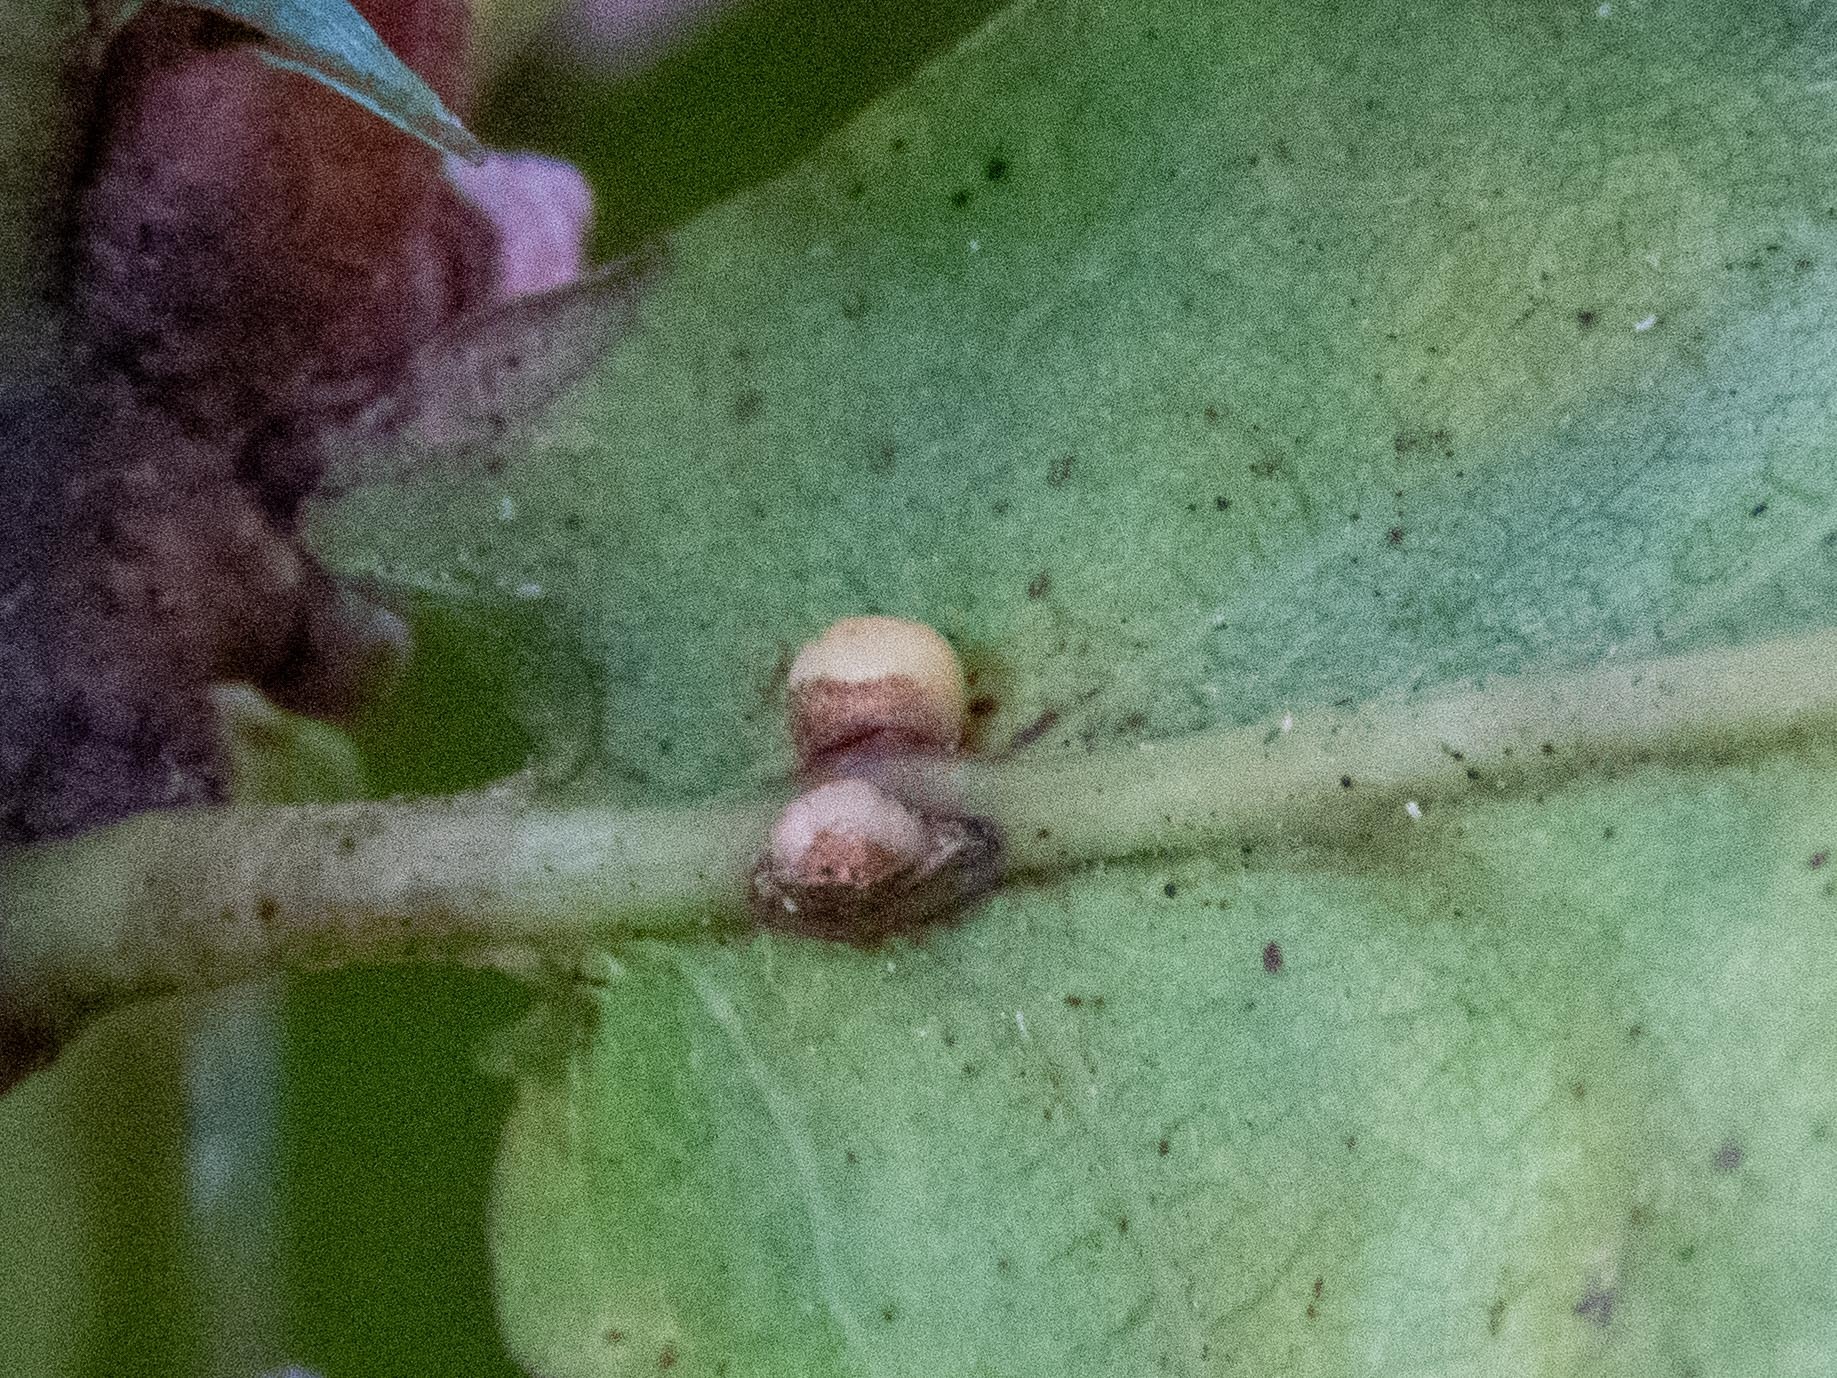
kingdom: Animalia
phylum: Arthropoda
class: Insecta
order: Hymenoptera
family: Cynipidae
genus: Neuroterus
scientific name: Neuroterus anthracinus
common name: Oyster gall
